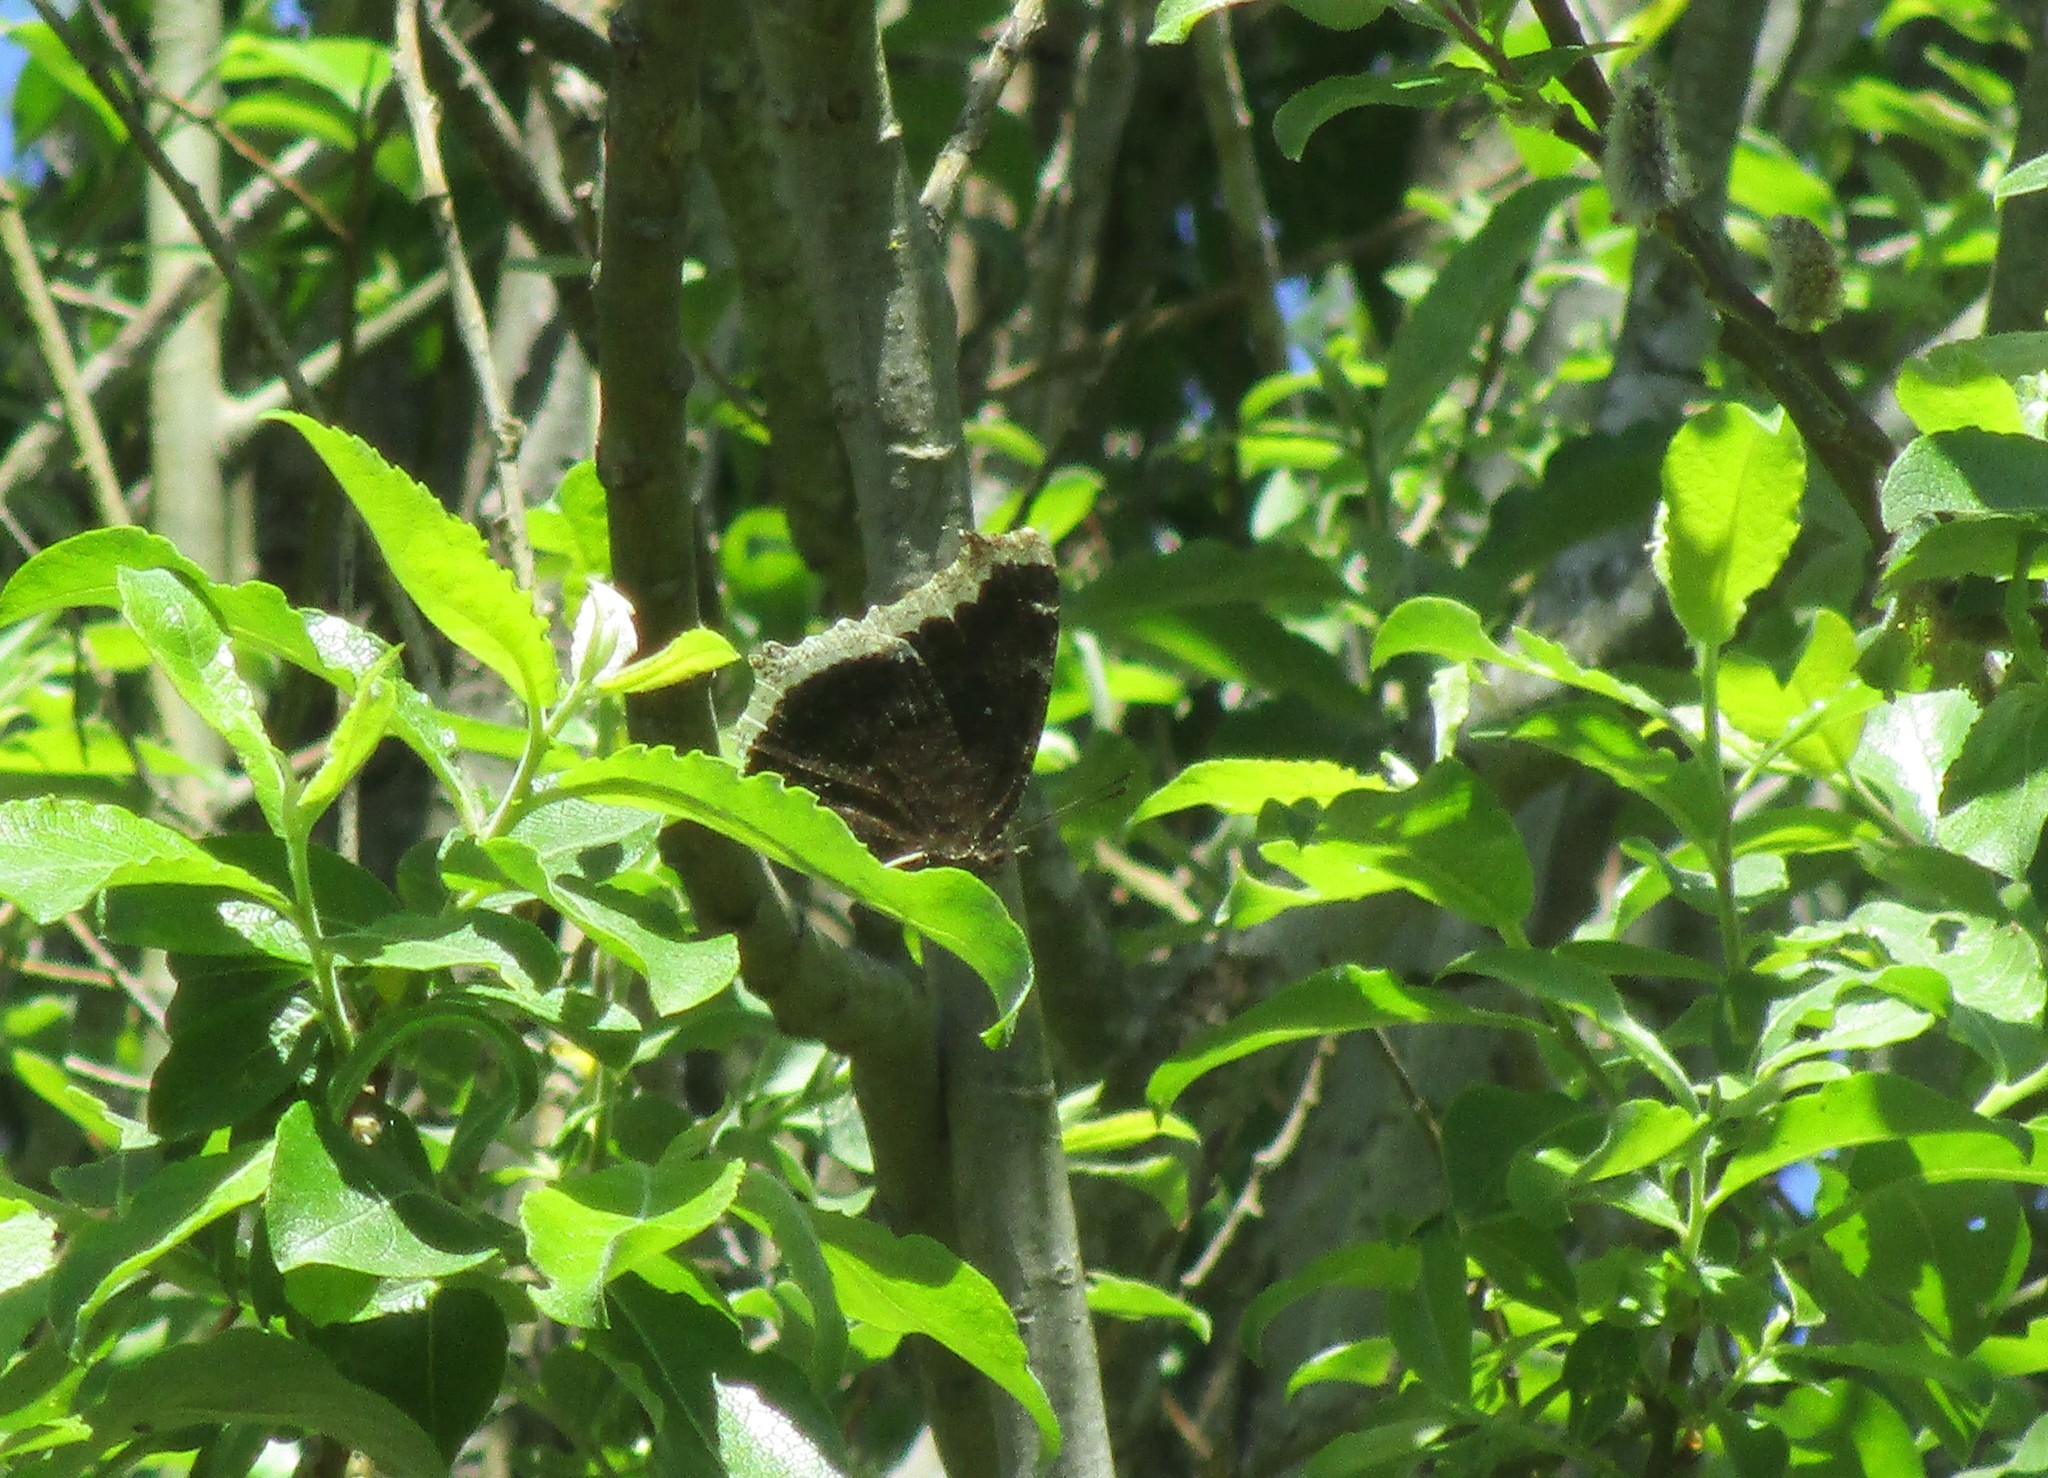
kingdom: Animalia
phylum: Arthropoda
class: Insecta
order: Lepidoptera
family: Nymphalidae
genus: Nymphalis
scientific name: Nymphalis antiopa
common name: Camberwell beauty
